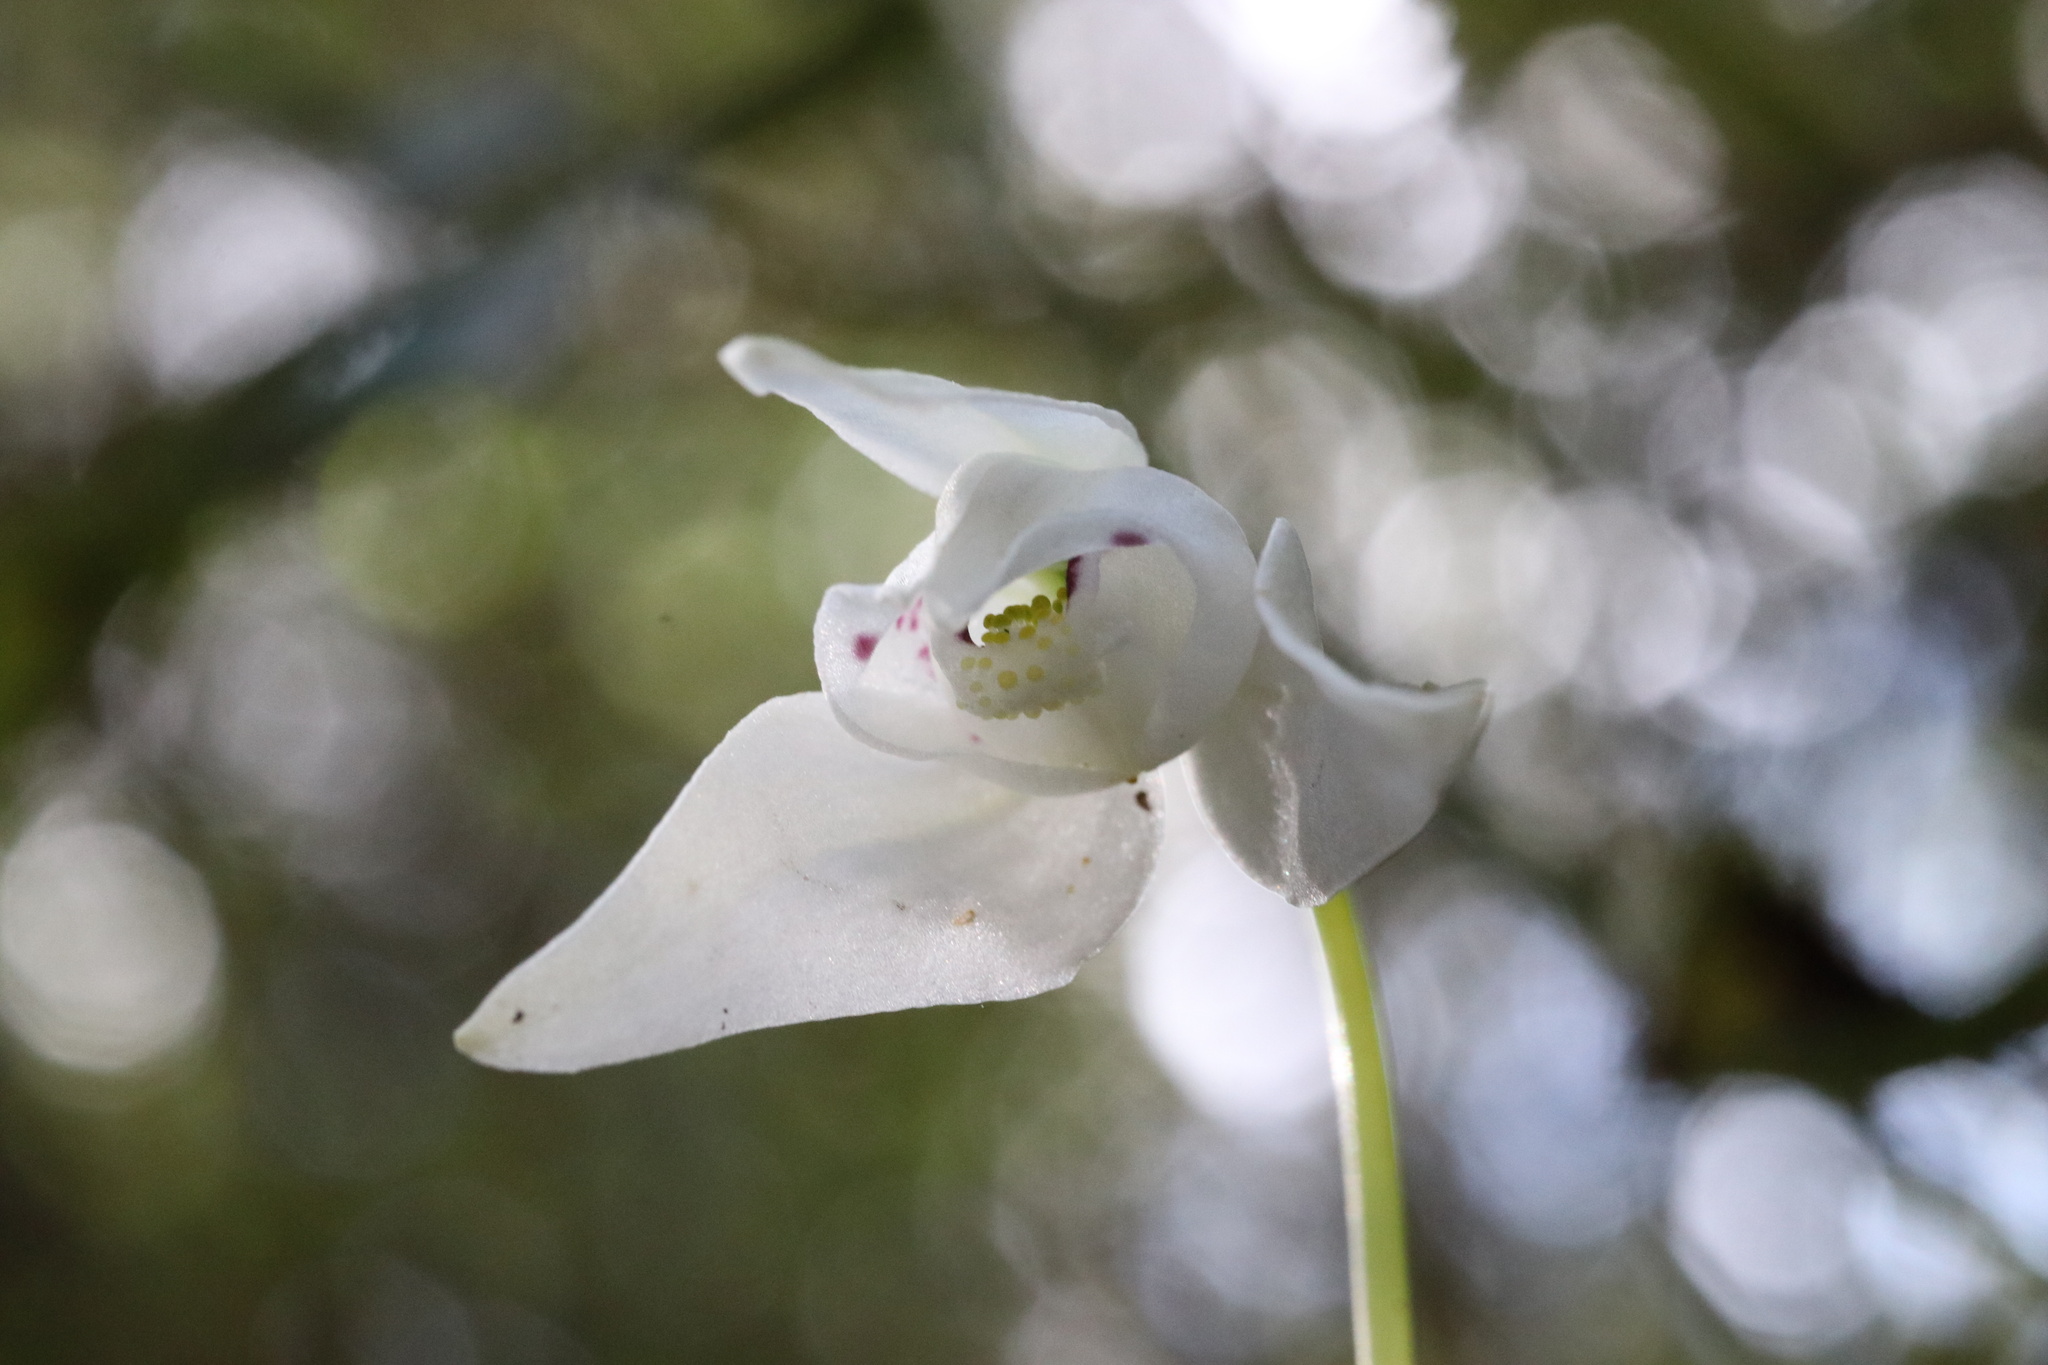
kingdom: Plantae
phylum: Tracheophyta
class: Liliopsida
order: Asparagales
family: Orchidaceae
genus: Codonorchis
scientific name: Codonorchis lessonii
